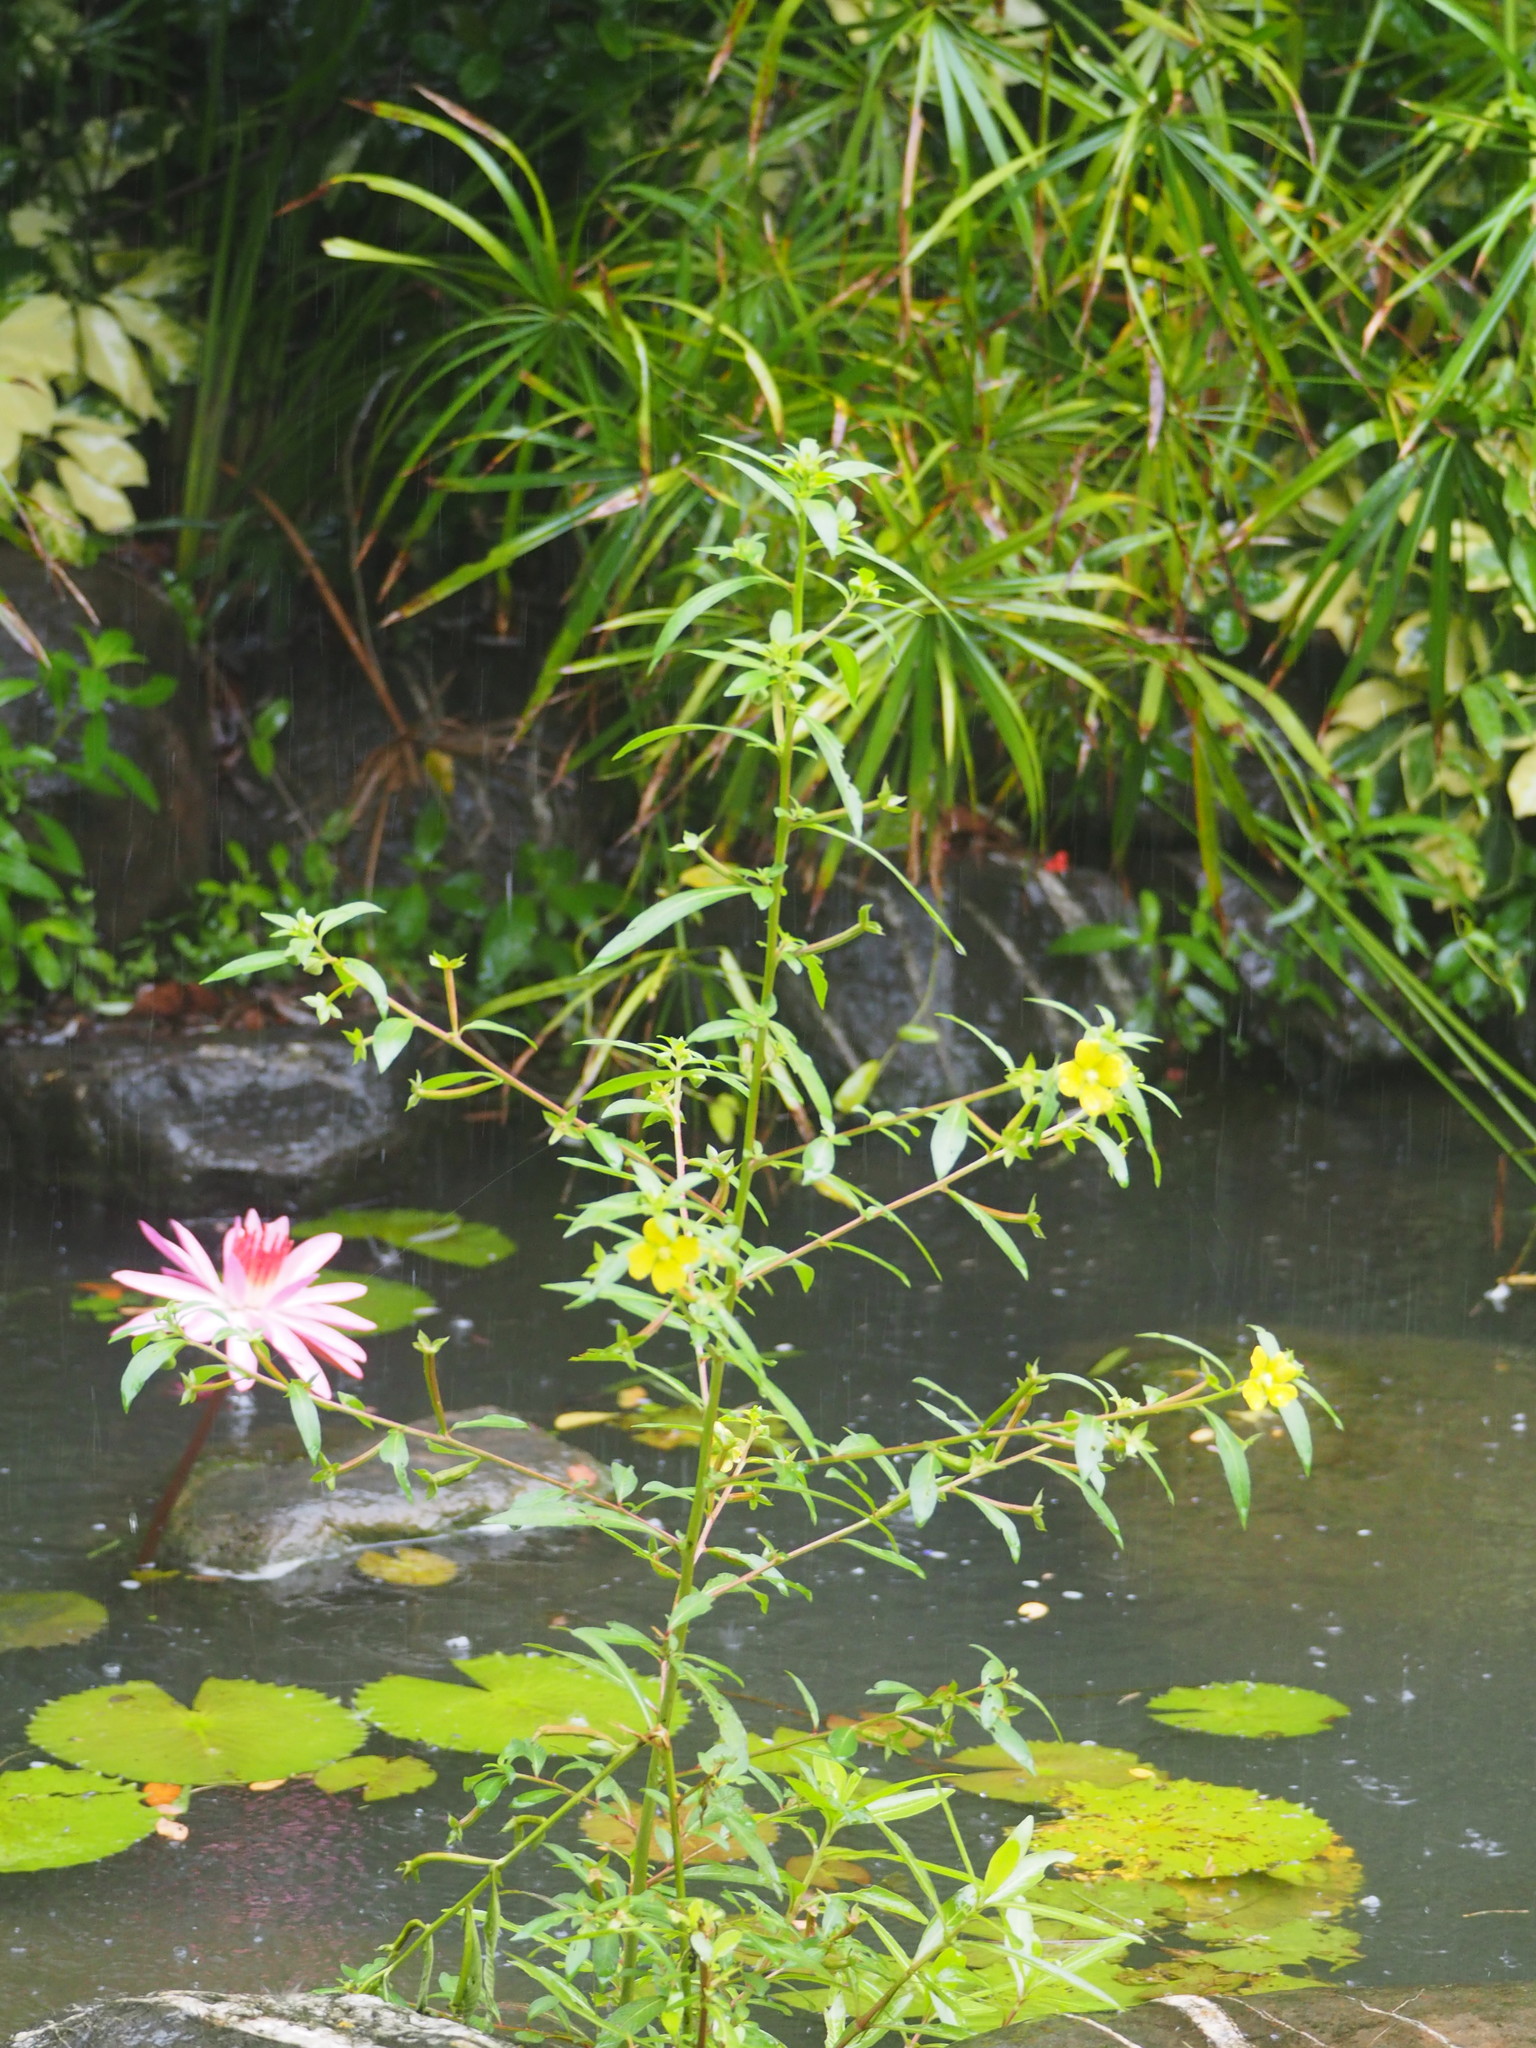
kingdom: Plantae
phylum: Tracheophyta
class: Magnoliopsida
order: Myrtales
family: Onagraceae
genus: Ludwigia
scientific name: Ludwigia octovalvis
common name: Water-primrose
